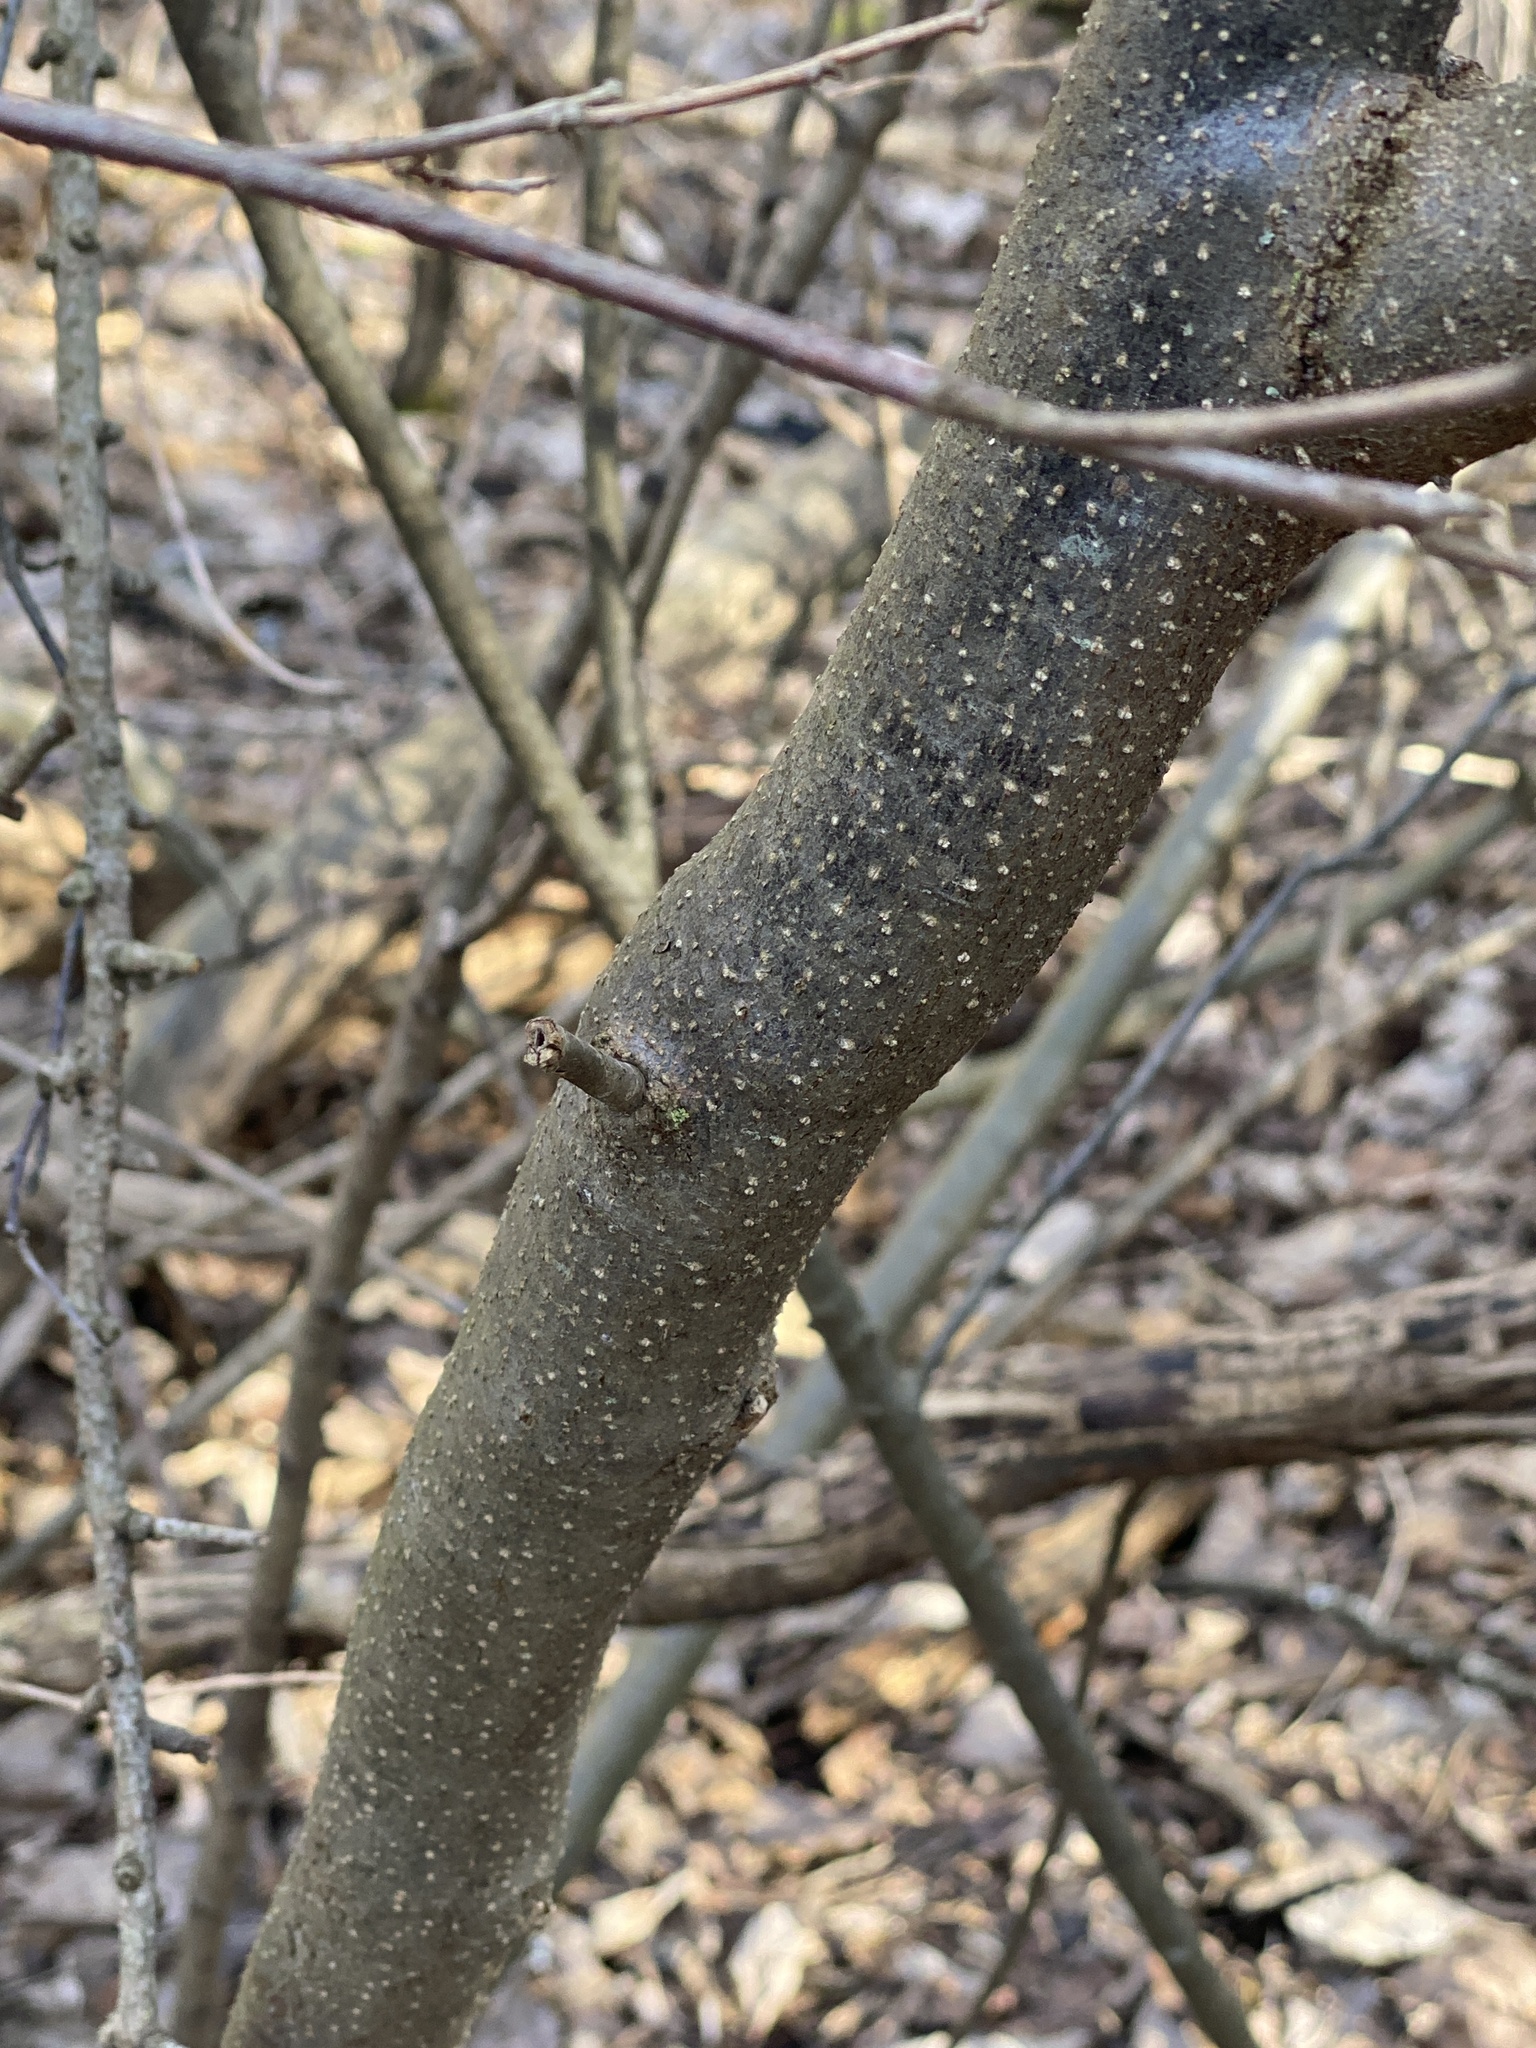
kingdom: Plantae
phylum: Tracheophyta
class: Magnoliopsida
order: Laurales
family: Lauraceae
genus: Lindera
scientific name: Lindera benzoin
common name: Spicebush
